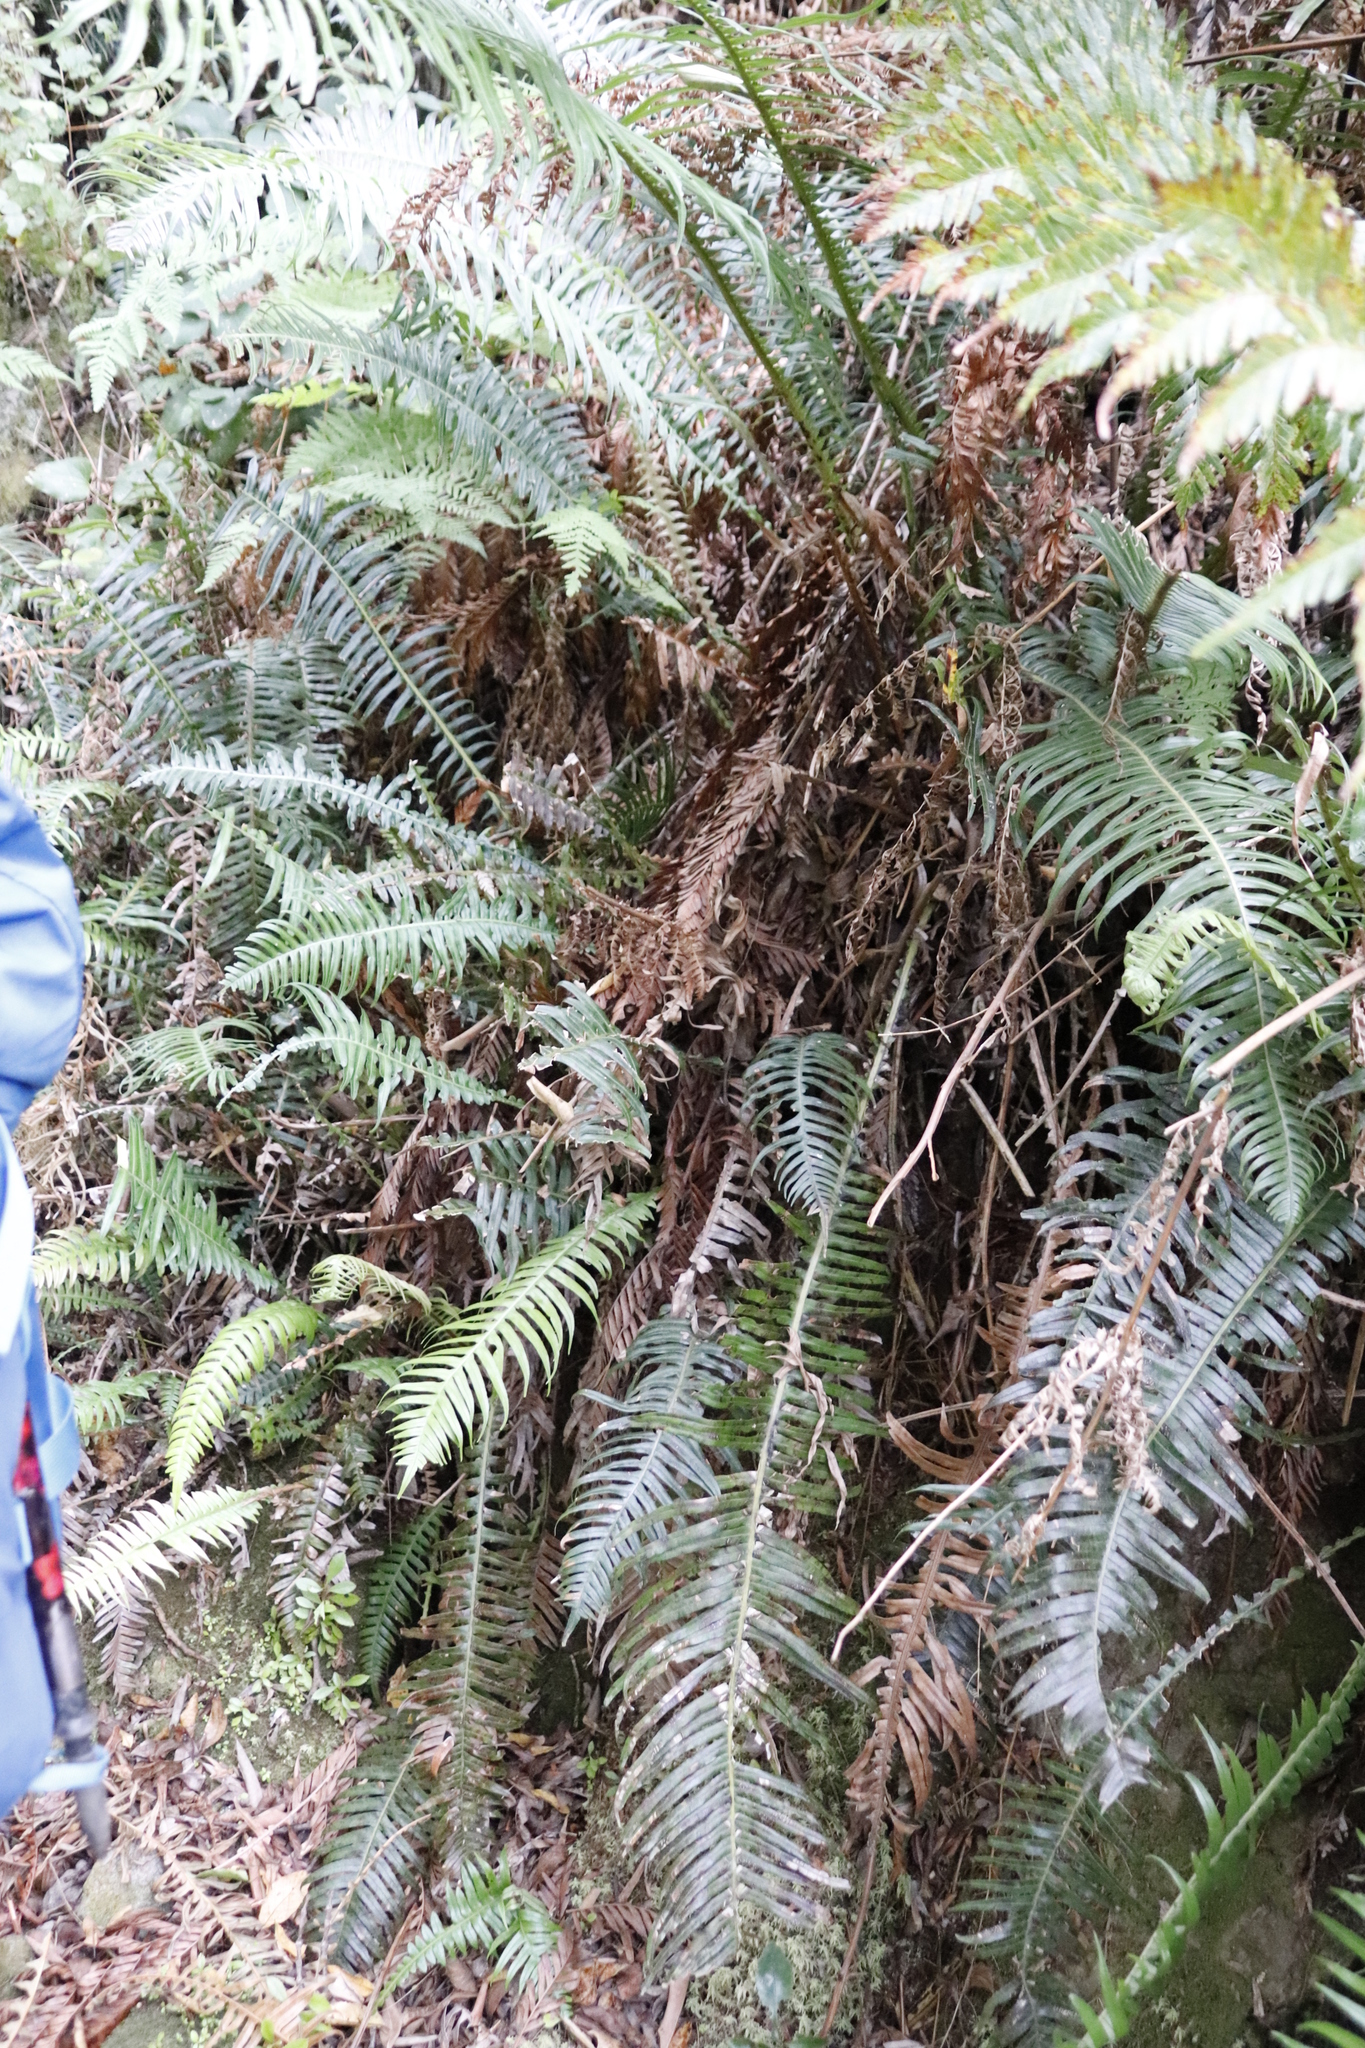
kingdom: Plantae
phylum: Tracheophyta
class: Polypodiopsida
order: Polypodiales
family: Blechnaceae
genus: Lomaridium
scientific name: Lomaridium attenuatum
